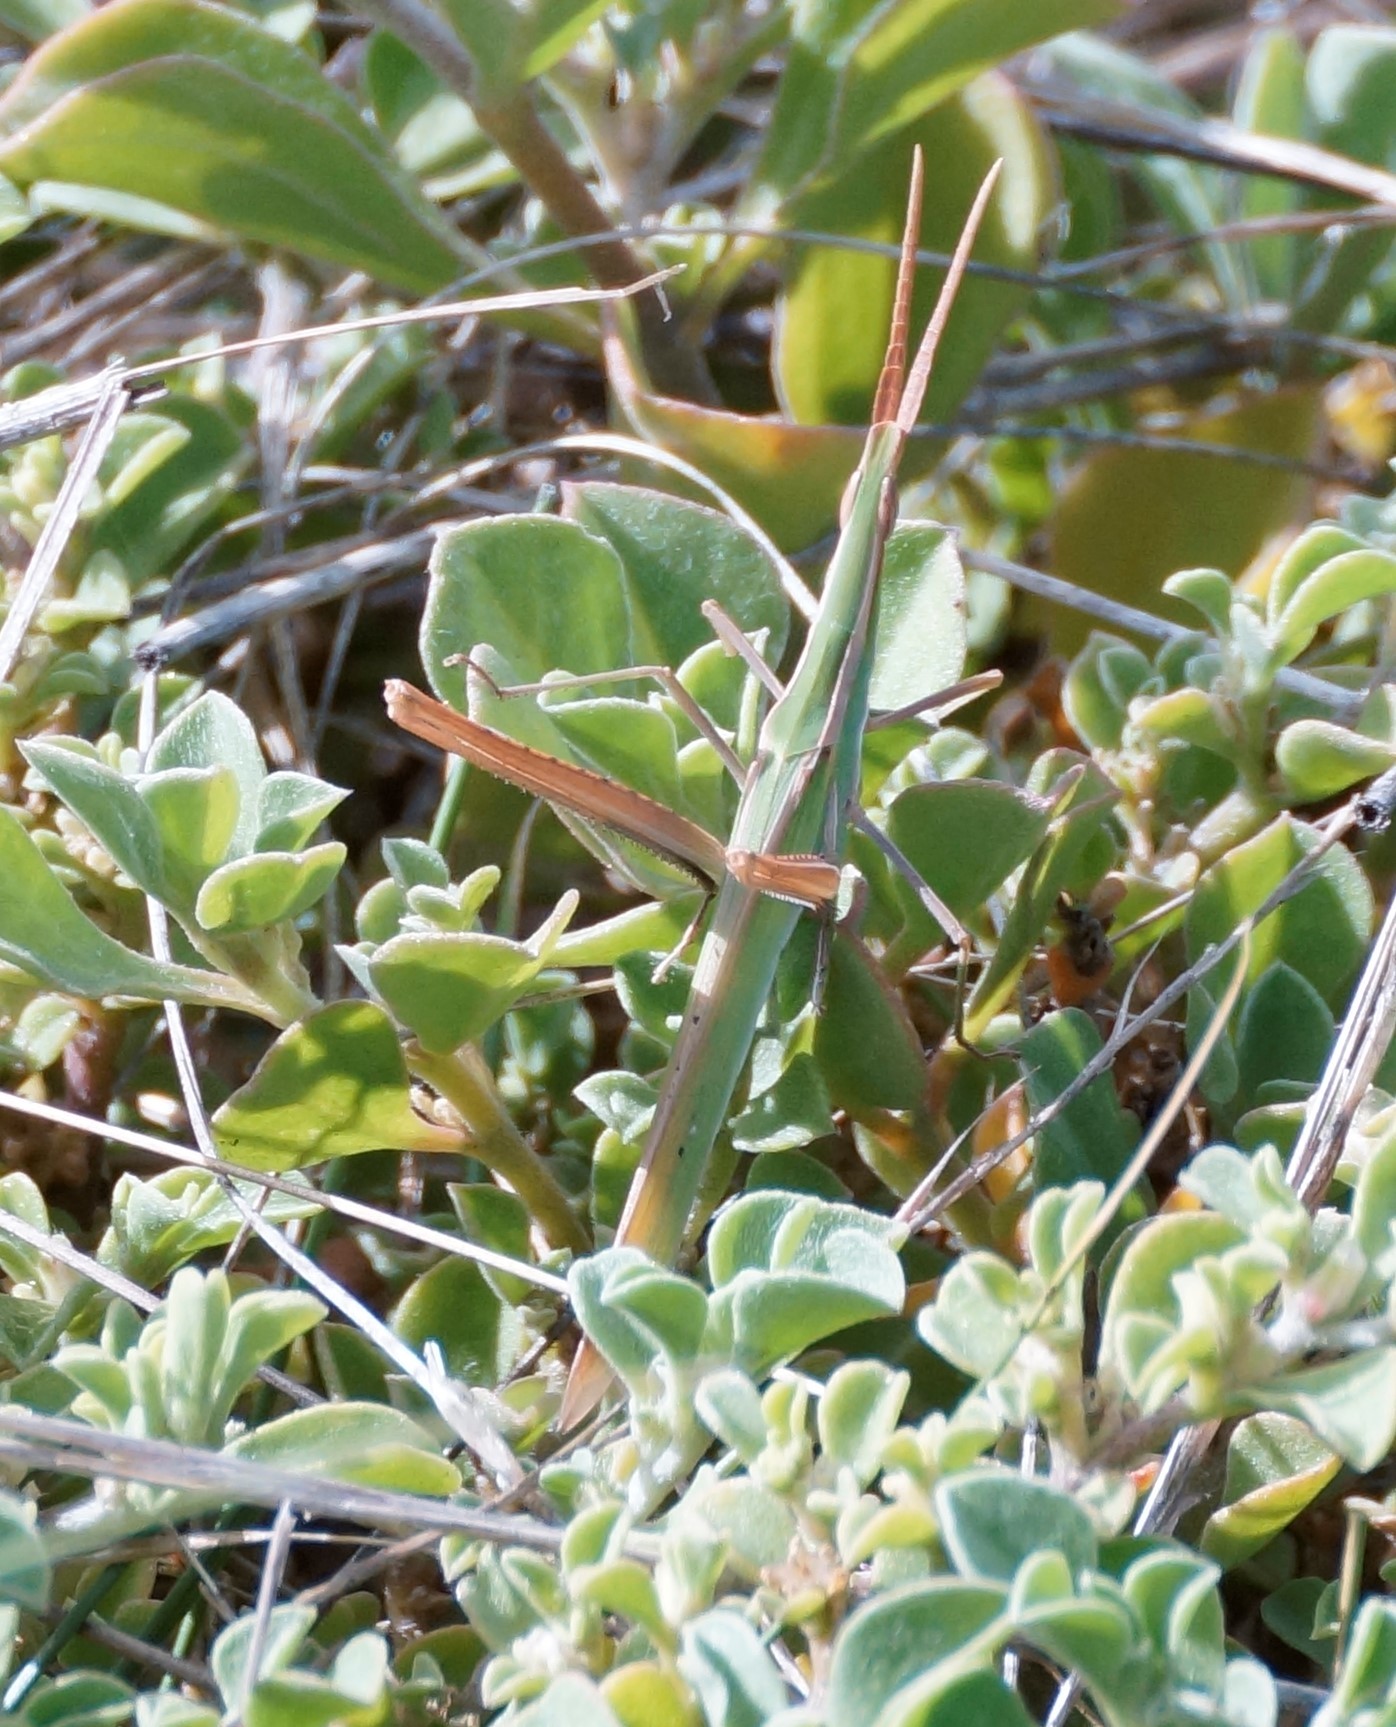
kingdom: Animalia
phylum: Arthropoda
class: Insecta
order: Orthoptera
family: Acrididae
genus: Acrida
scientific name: Acrida conica
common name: Giant green slantface
